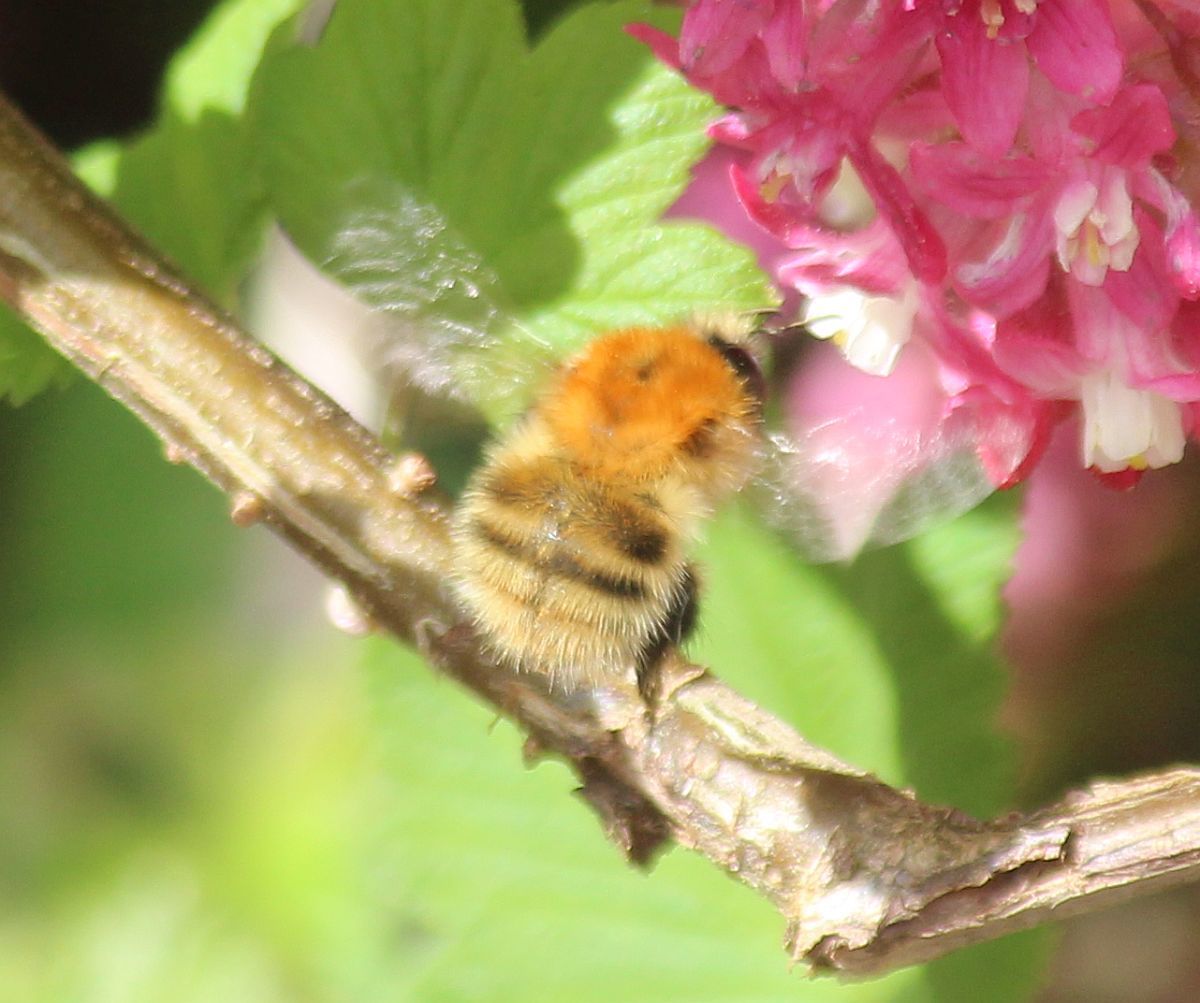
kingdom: Animalia
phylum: Arthropoda
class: Insecta
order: Hymenoptera
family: Apidae
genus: Bombus
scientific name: Bombus pascuorum
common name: Common carder bee
